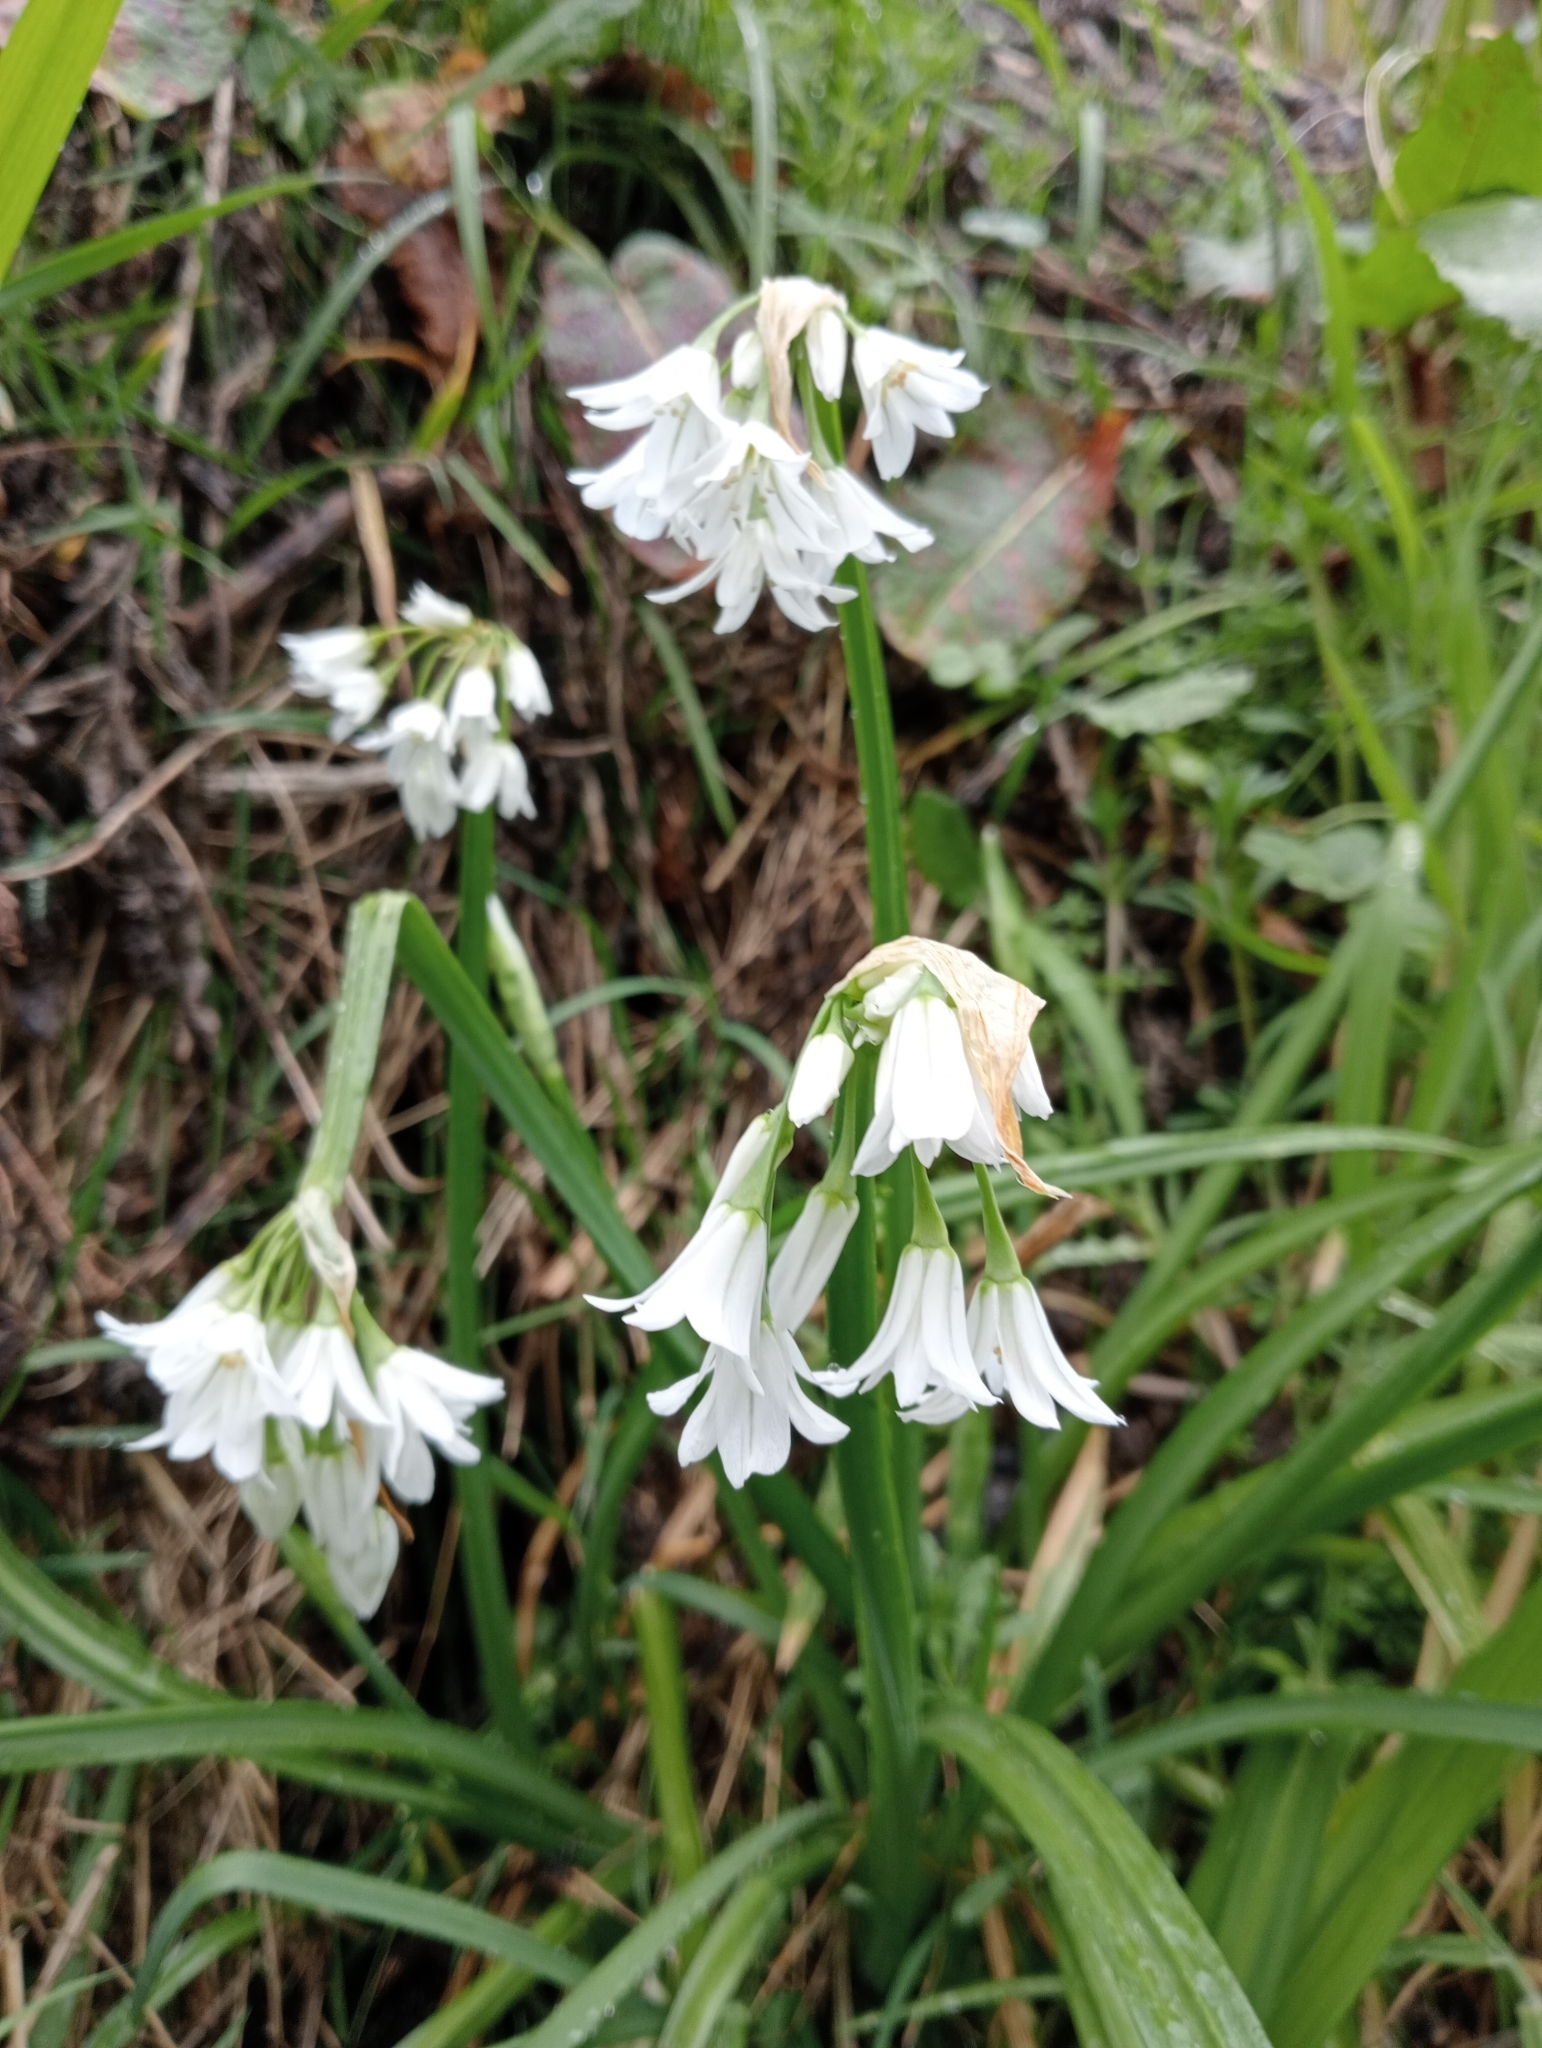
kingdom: Plantae
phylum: Tracheophyta
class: Liliopsida
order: Asparagales
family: Amaryllidaceae
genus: Allium
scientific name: Allium triquetrum
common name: Three-cornered garlic
